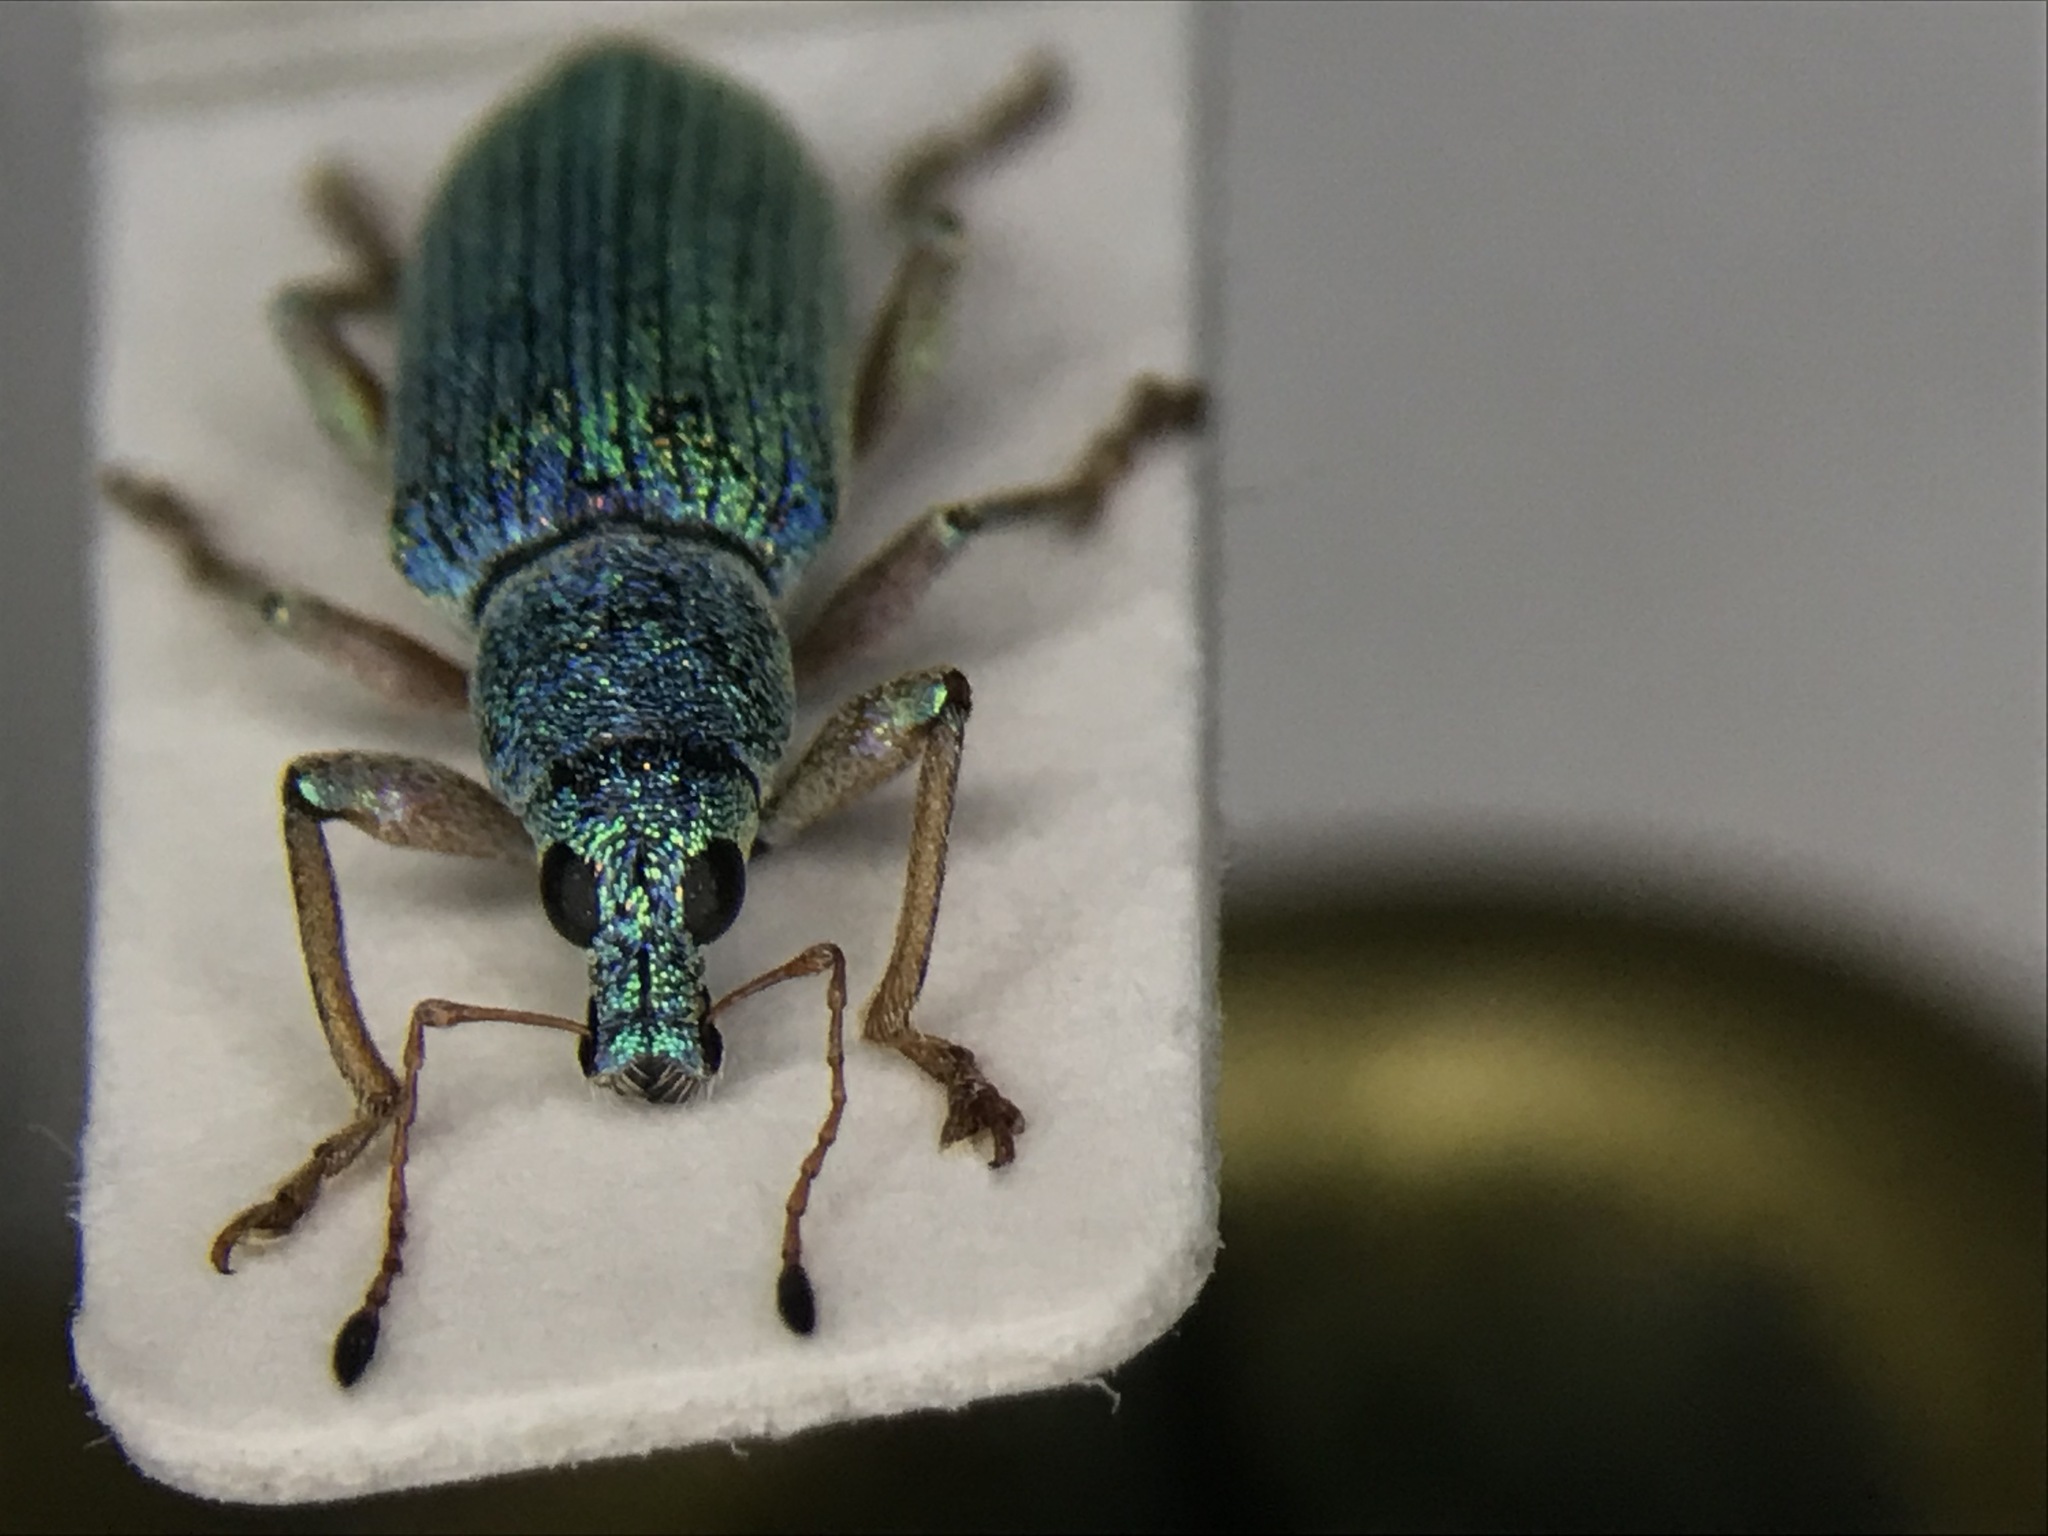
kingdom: Animalia
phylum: Arthropoda
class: Insecta
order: Coleoptera
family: Curculionidae
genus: Polydrusus
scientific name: Polydrusus formosus
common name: Weevil
